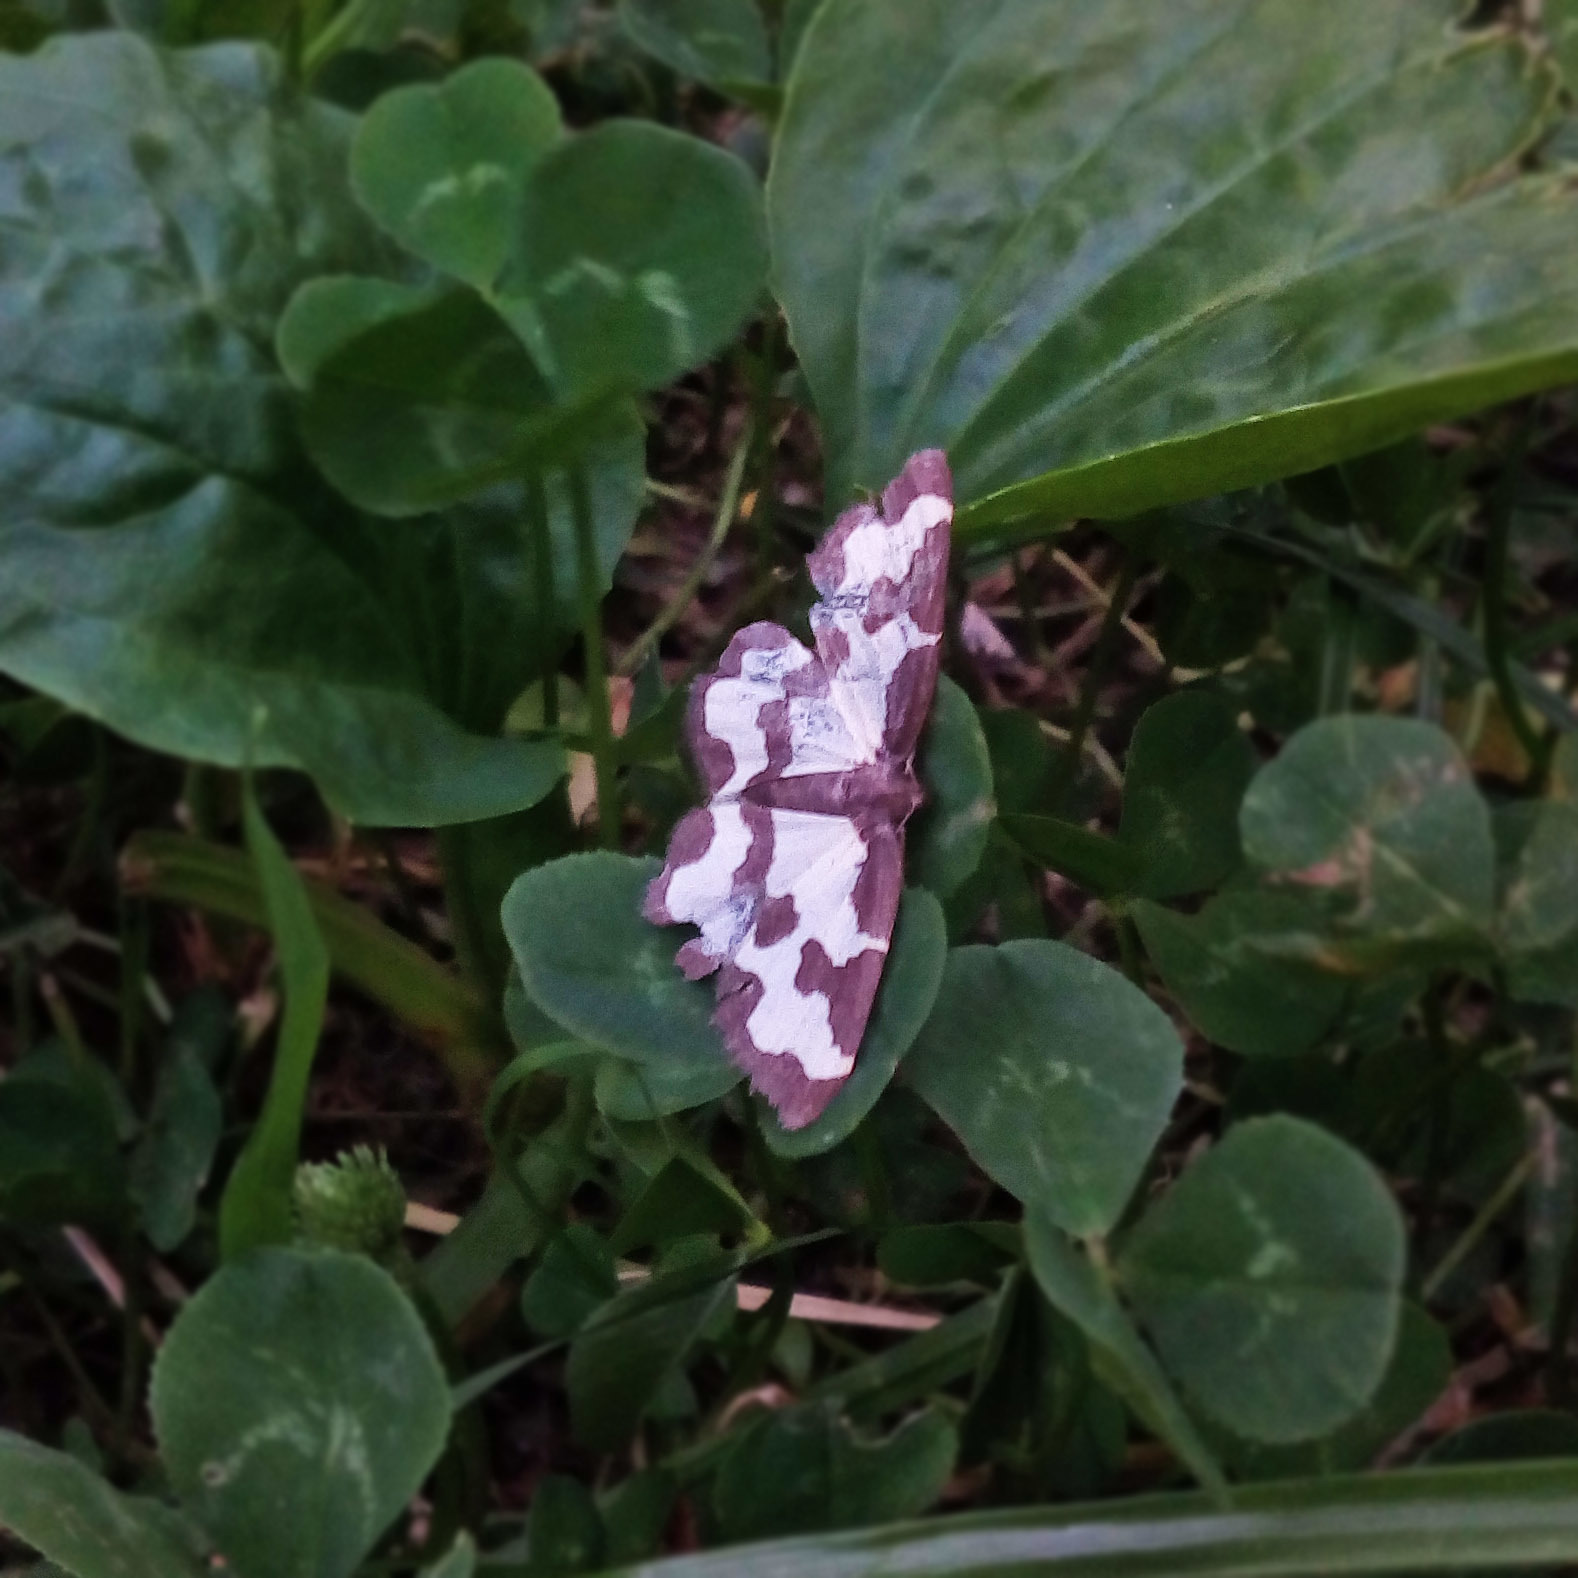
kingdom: Animalia
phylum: Arthropoda
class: Insecta
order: Lepidoptera
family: Geometridae
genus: Lomaspilis
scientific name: Lomaspilis marginata
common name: Clouded border
